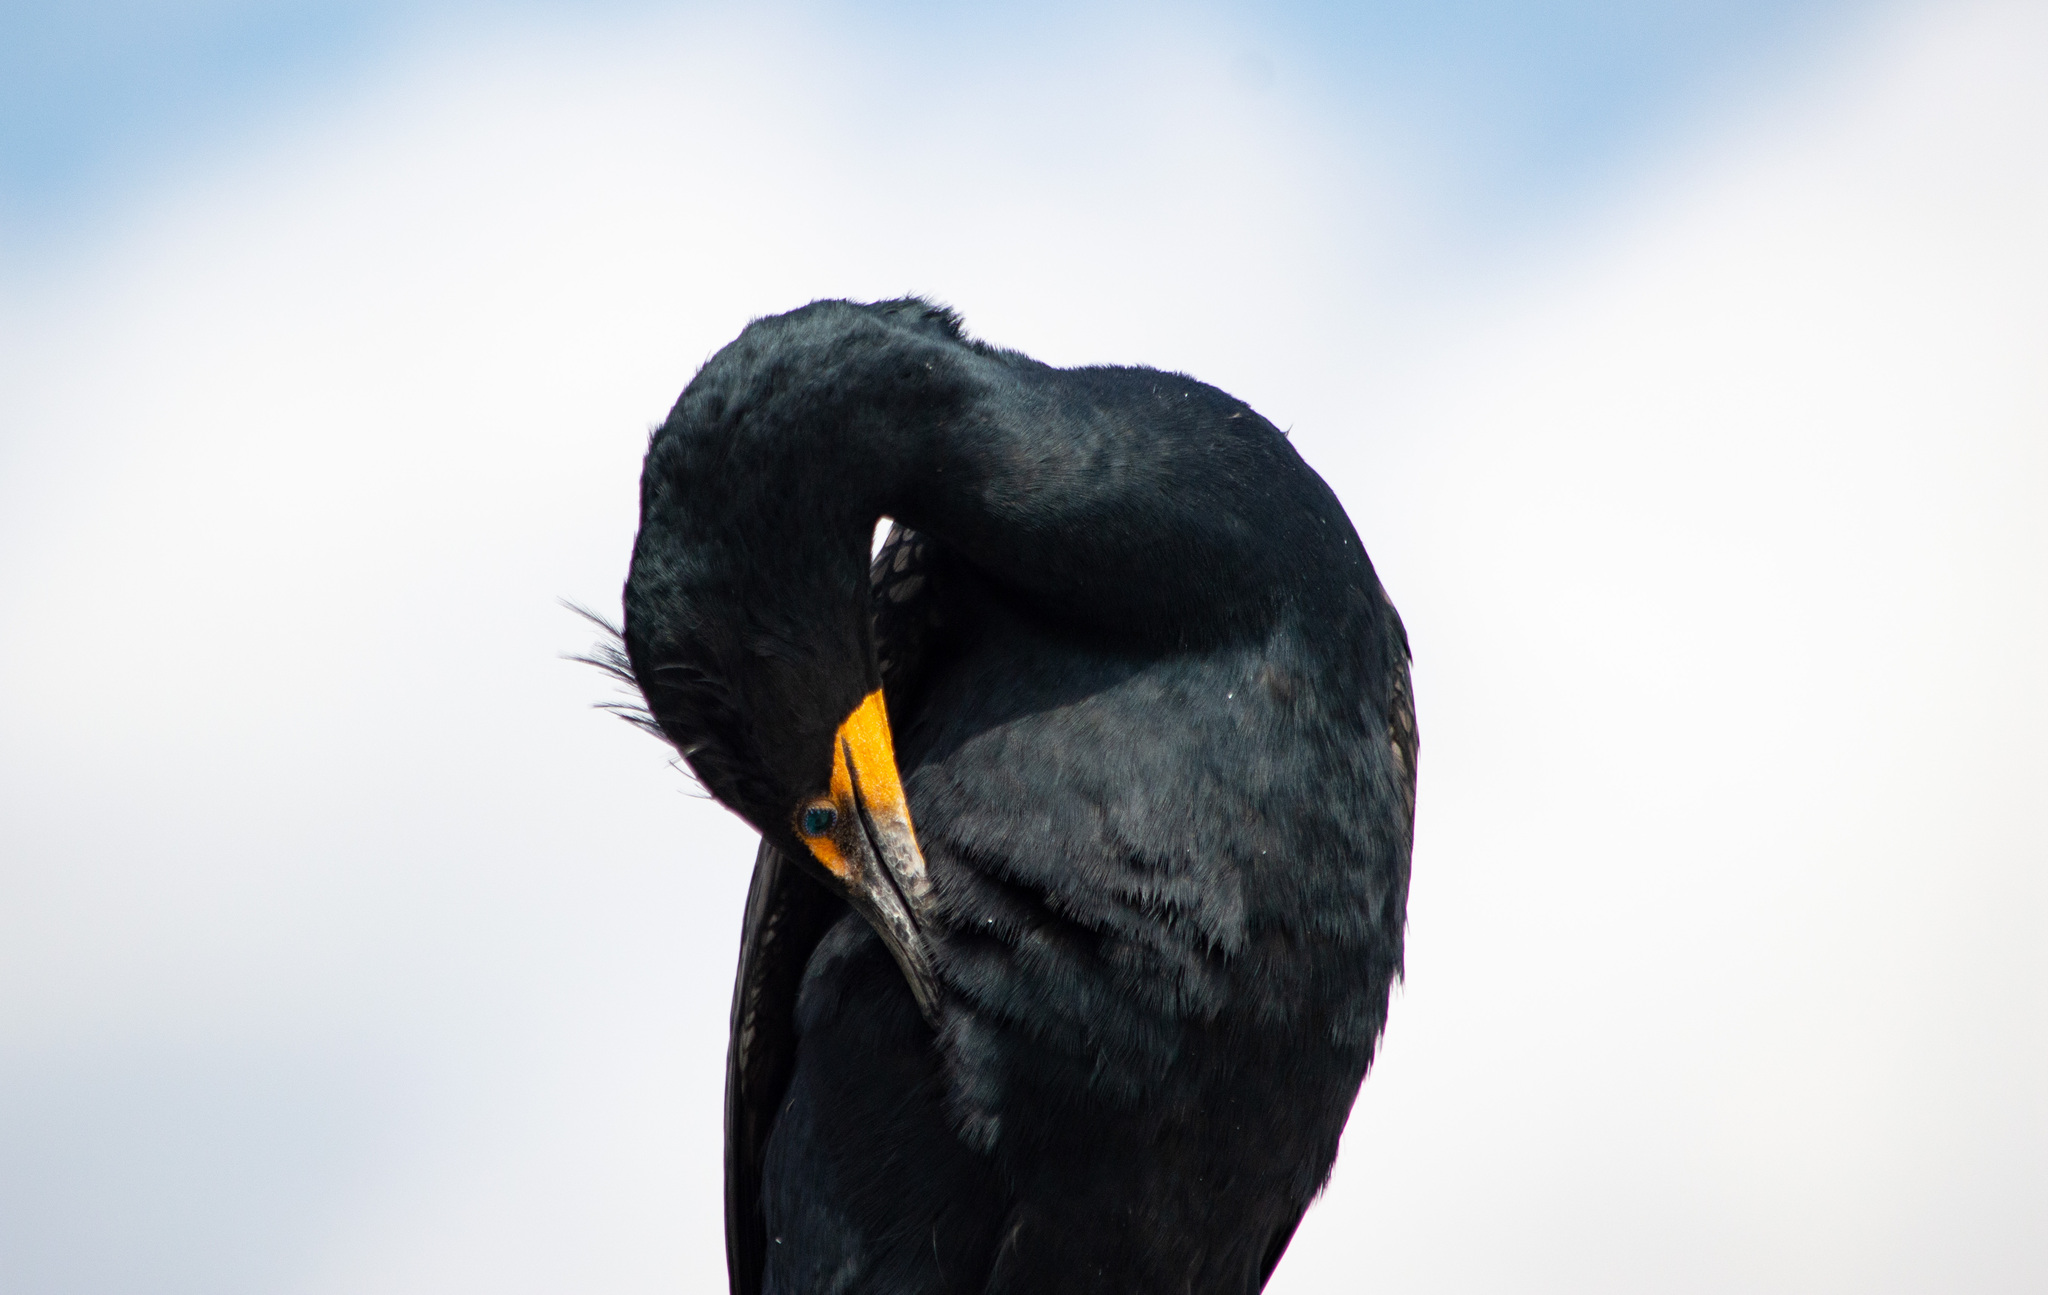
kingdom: Animalia
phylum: Chordata
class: Aves
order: Suliformes
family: Phalacrocoracidae
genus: Phalacrocorax
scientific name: Phalacrocorax auritus
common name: Double-crested cormorant
